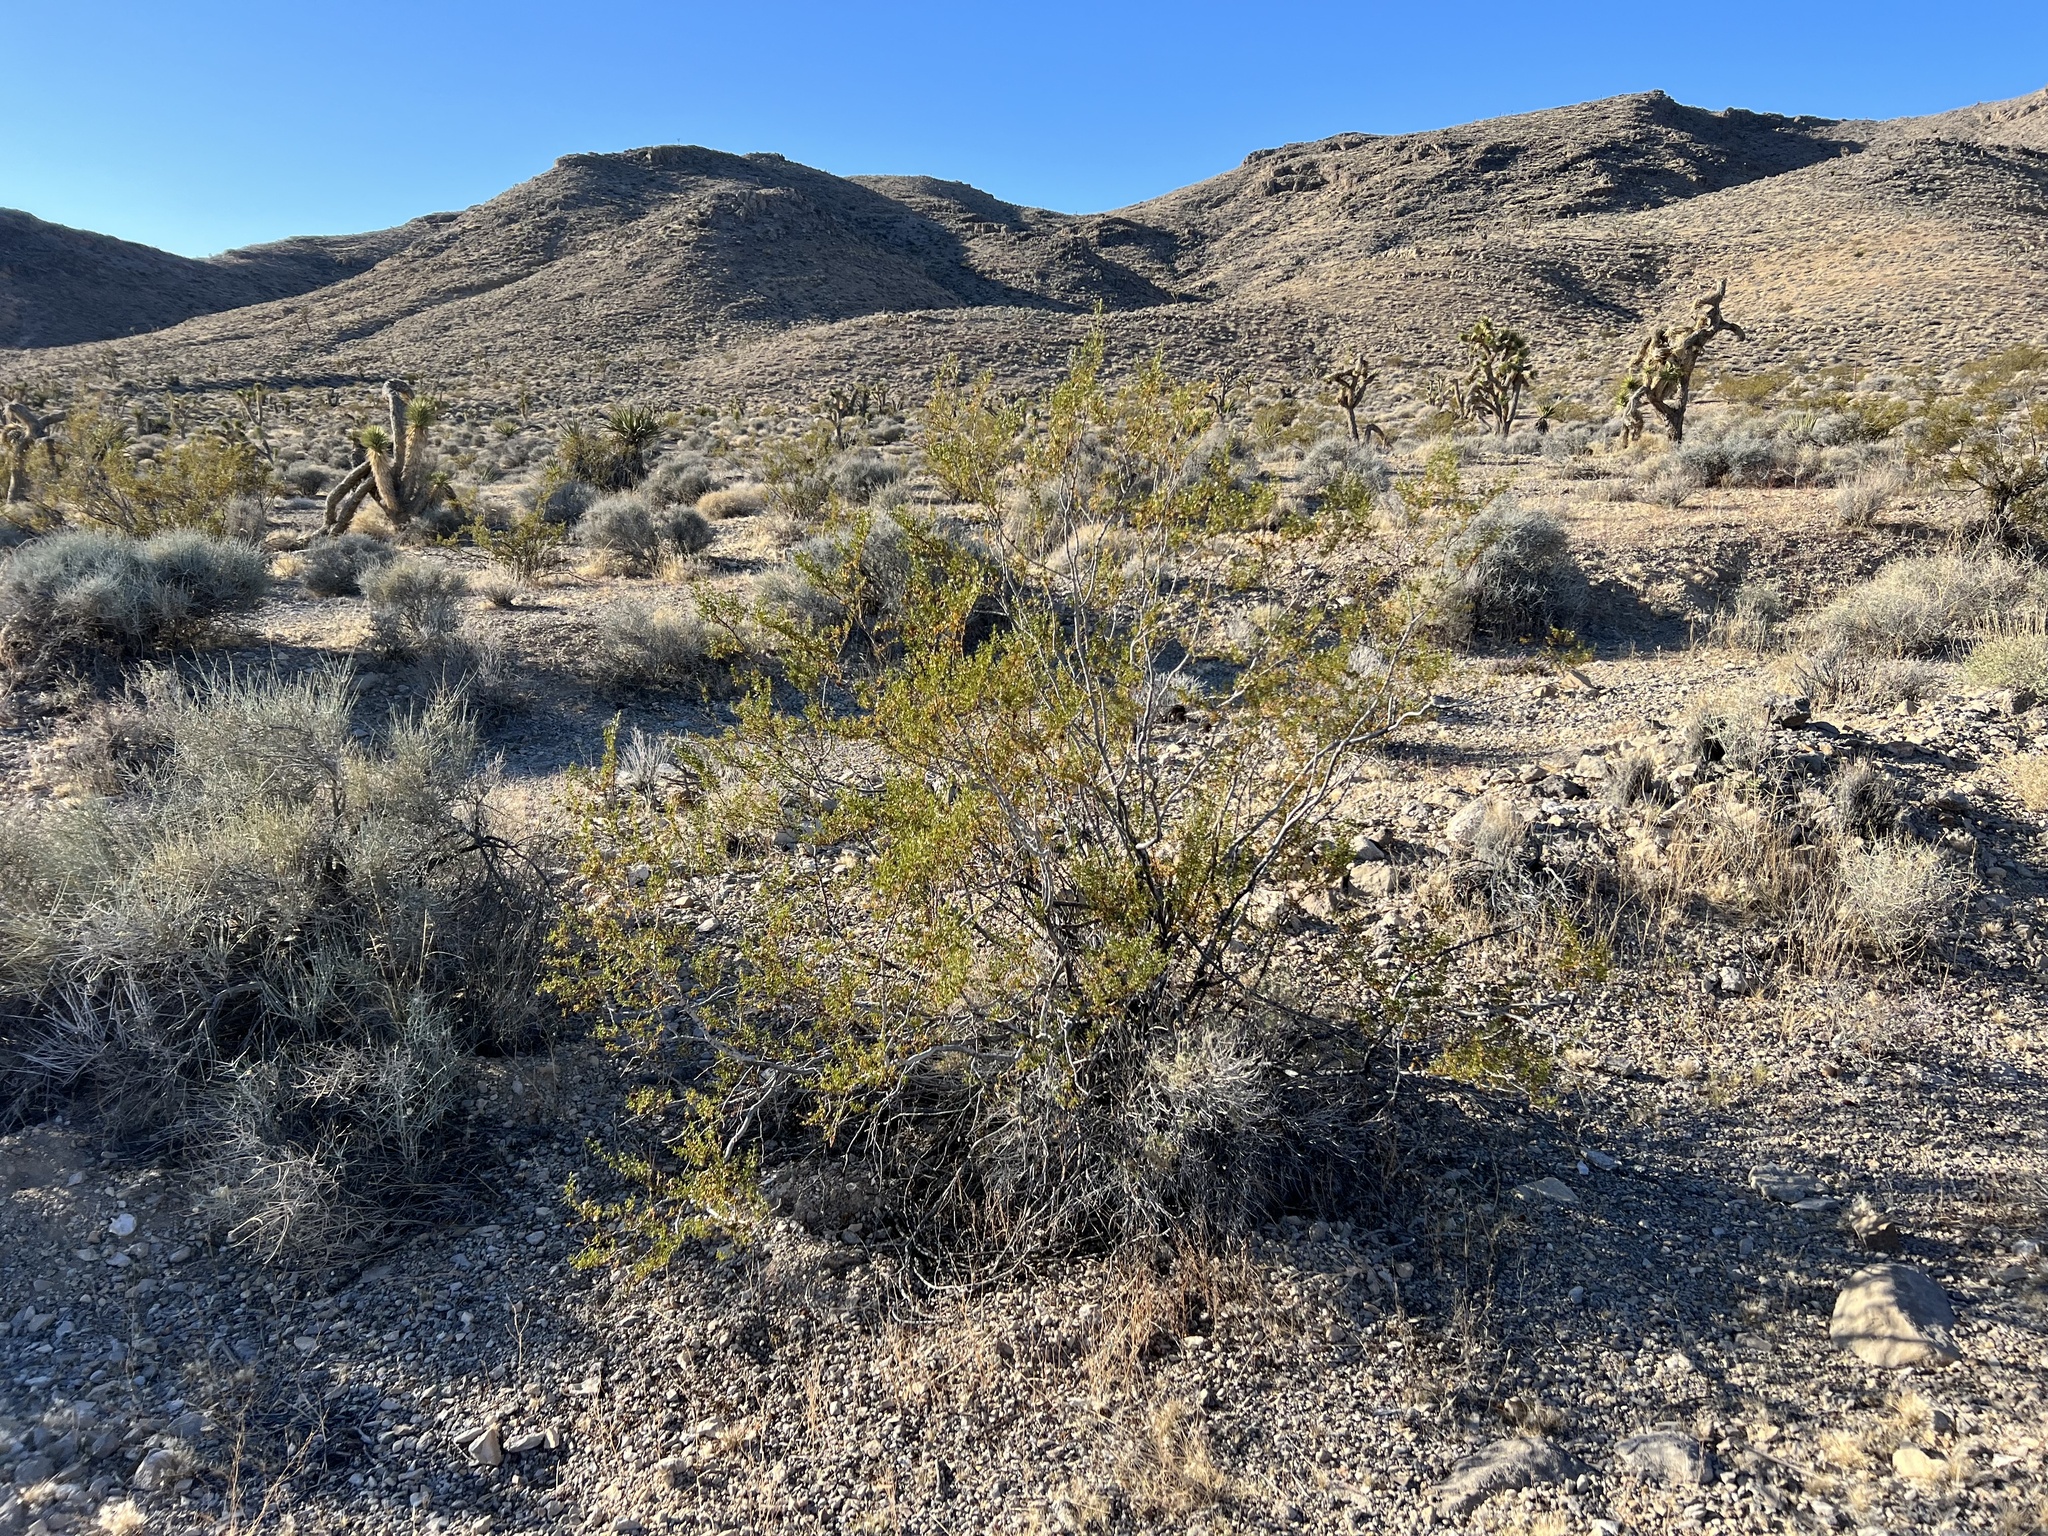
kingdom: Plantae
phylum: Tracheophyta
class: Magnoliopsida
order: Zygophyllales
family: Zygophyllaceae
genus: Larrea
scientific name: Larrea tridentata
